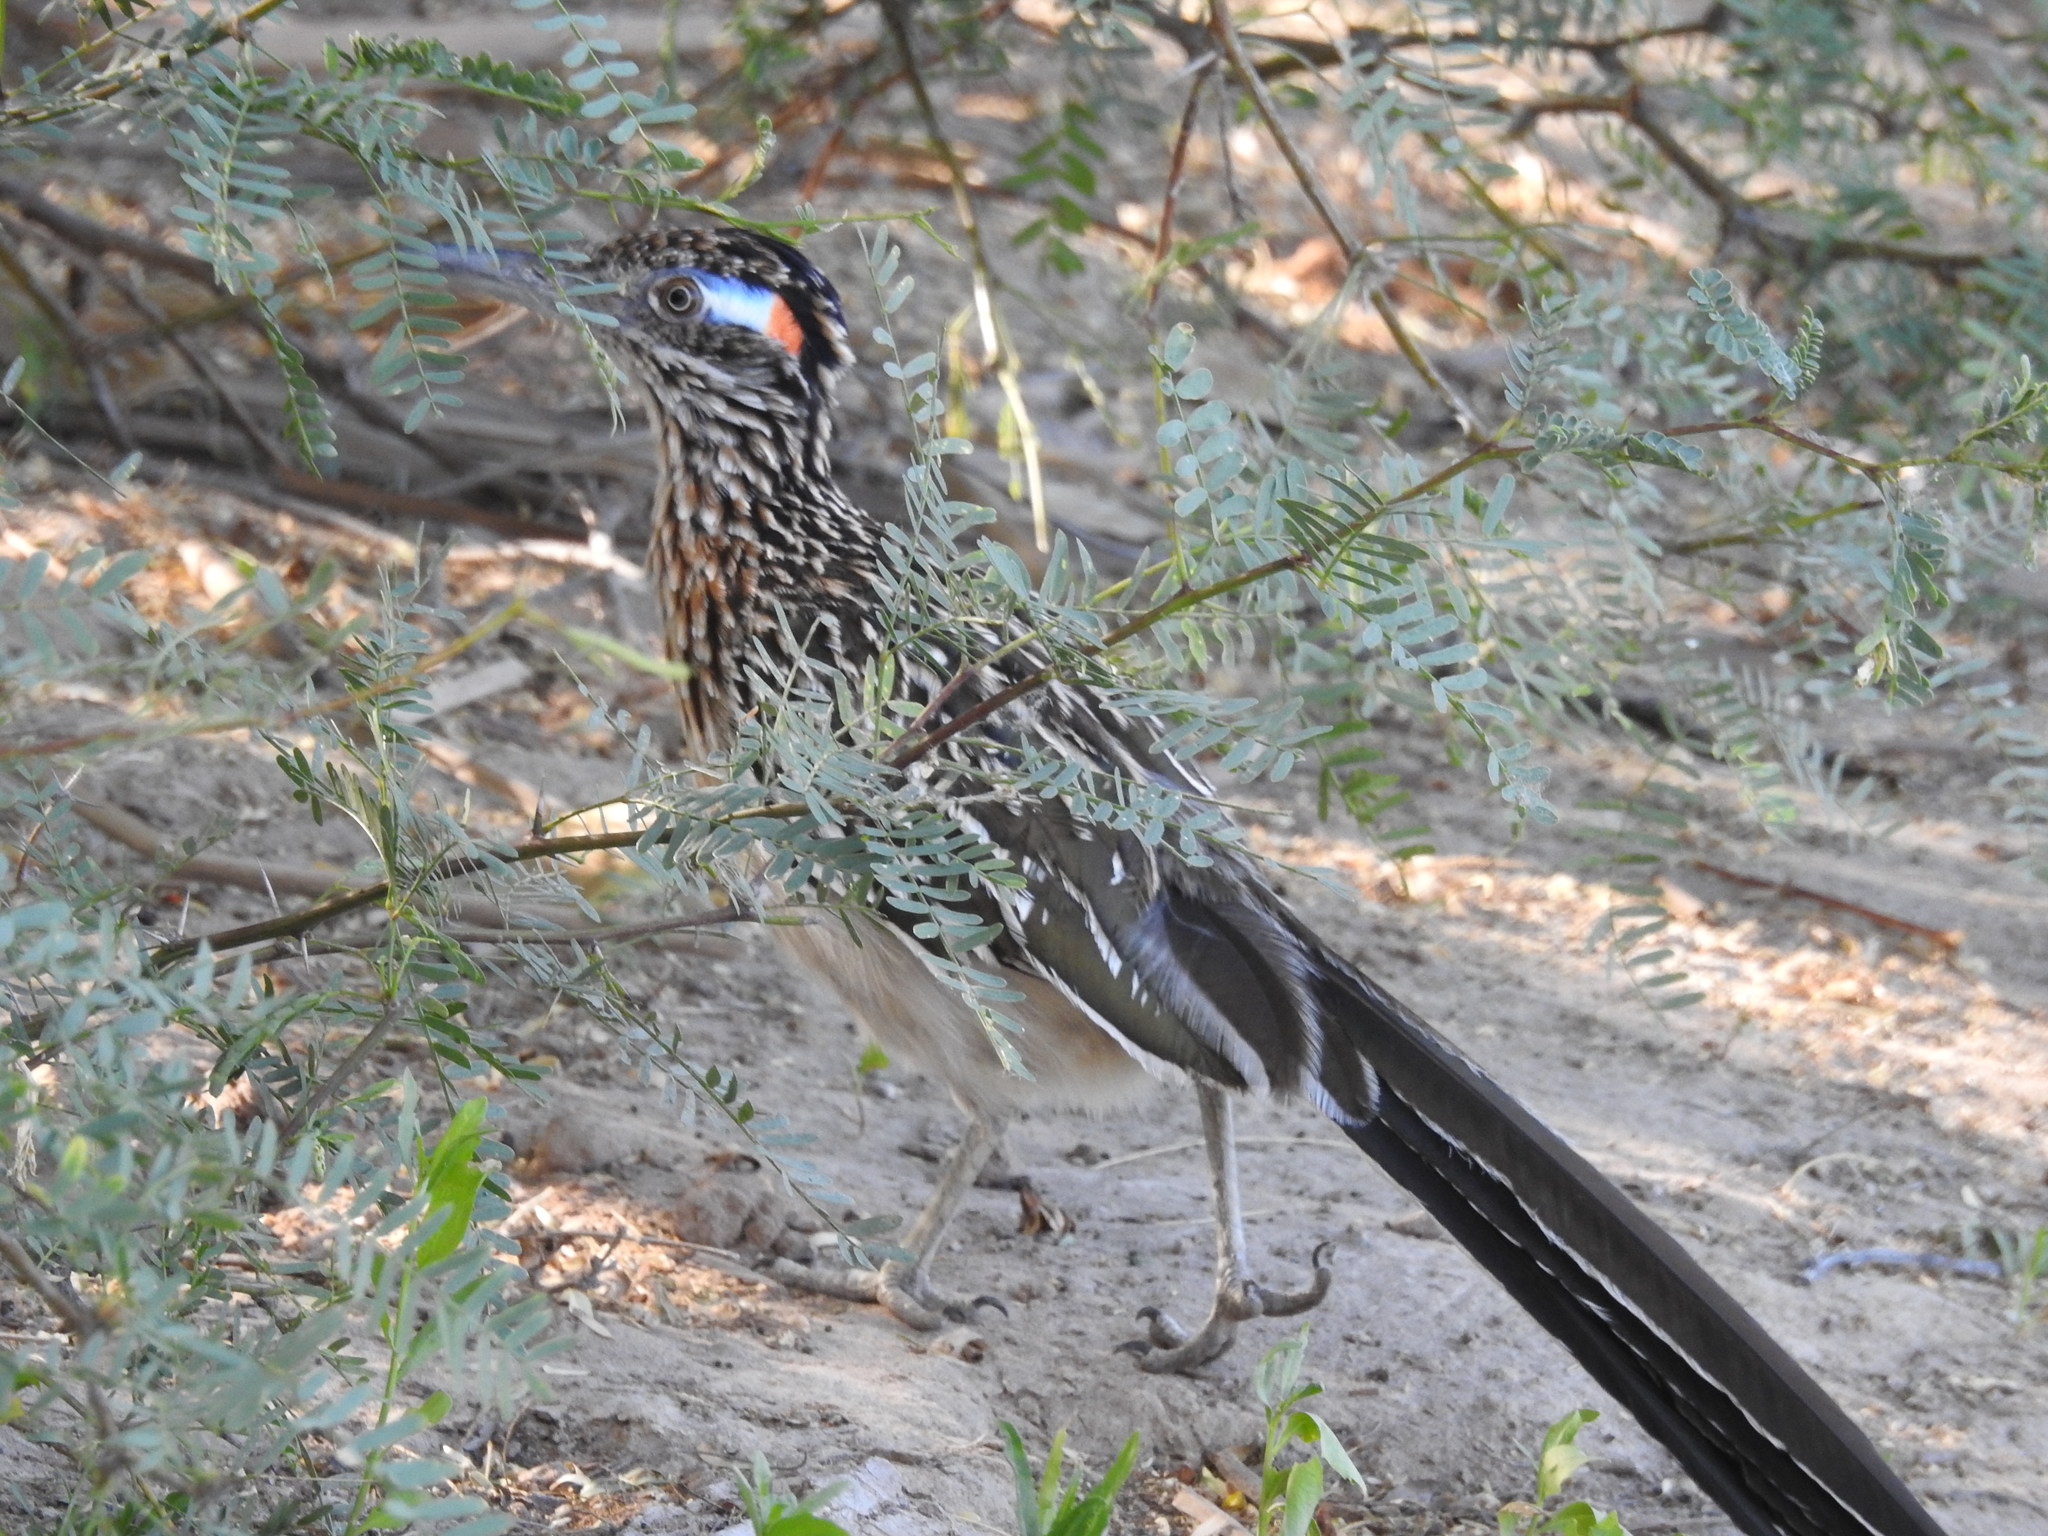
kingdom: Animalia
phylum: Chordata
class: Aves
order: Cuculiformes
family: Cuculidae
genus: Geococcyx
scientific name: Geococcyx californianus
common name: Greater roadrunner
